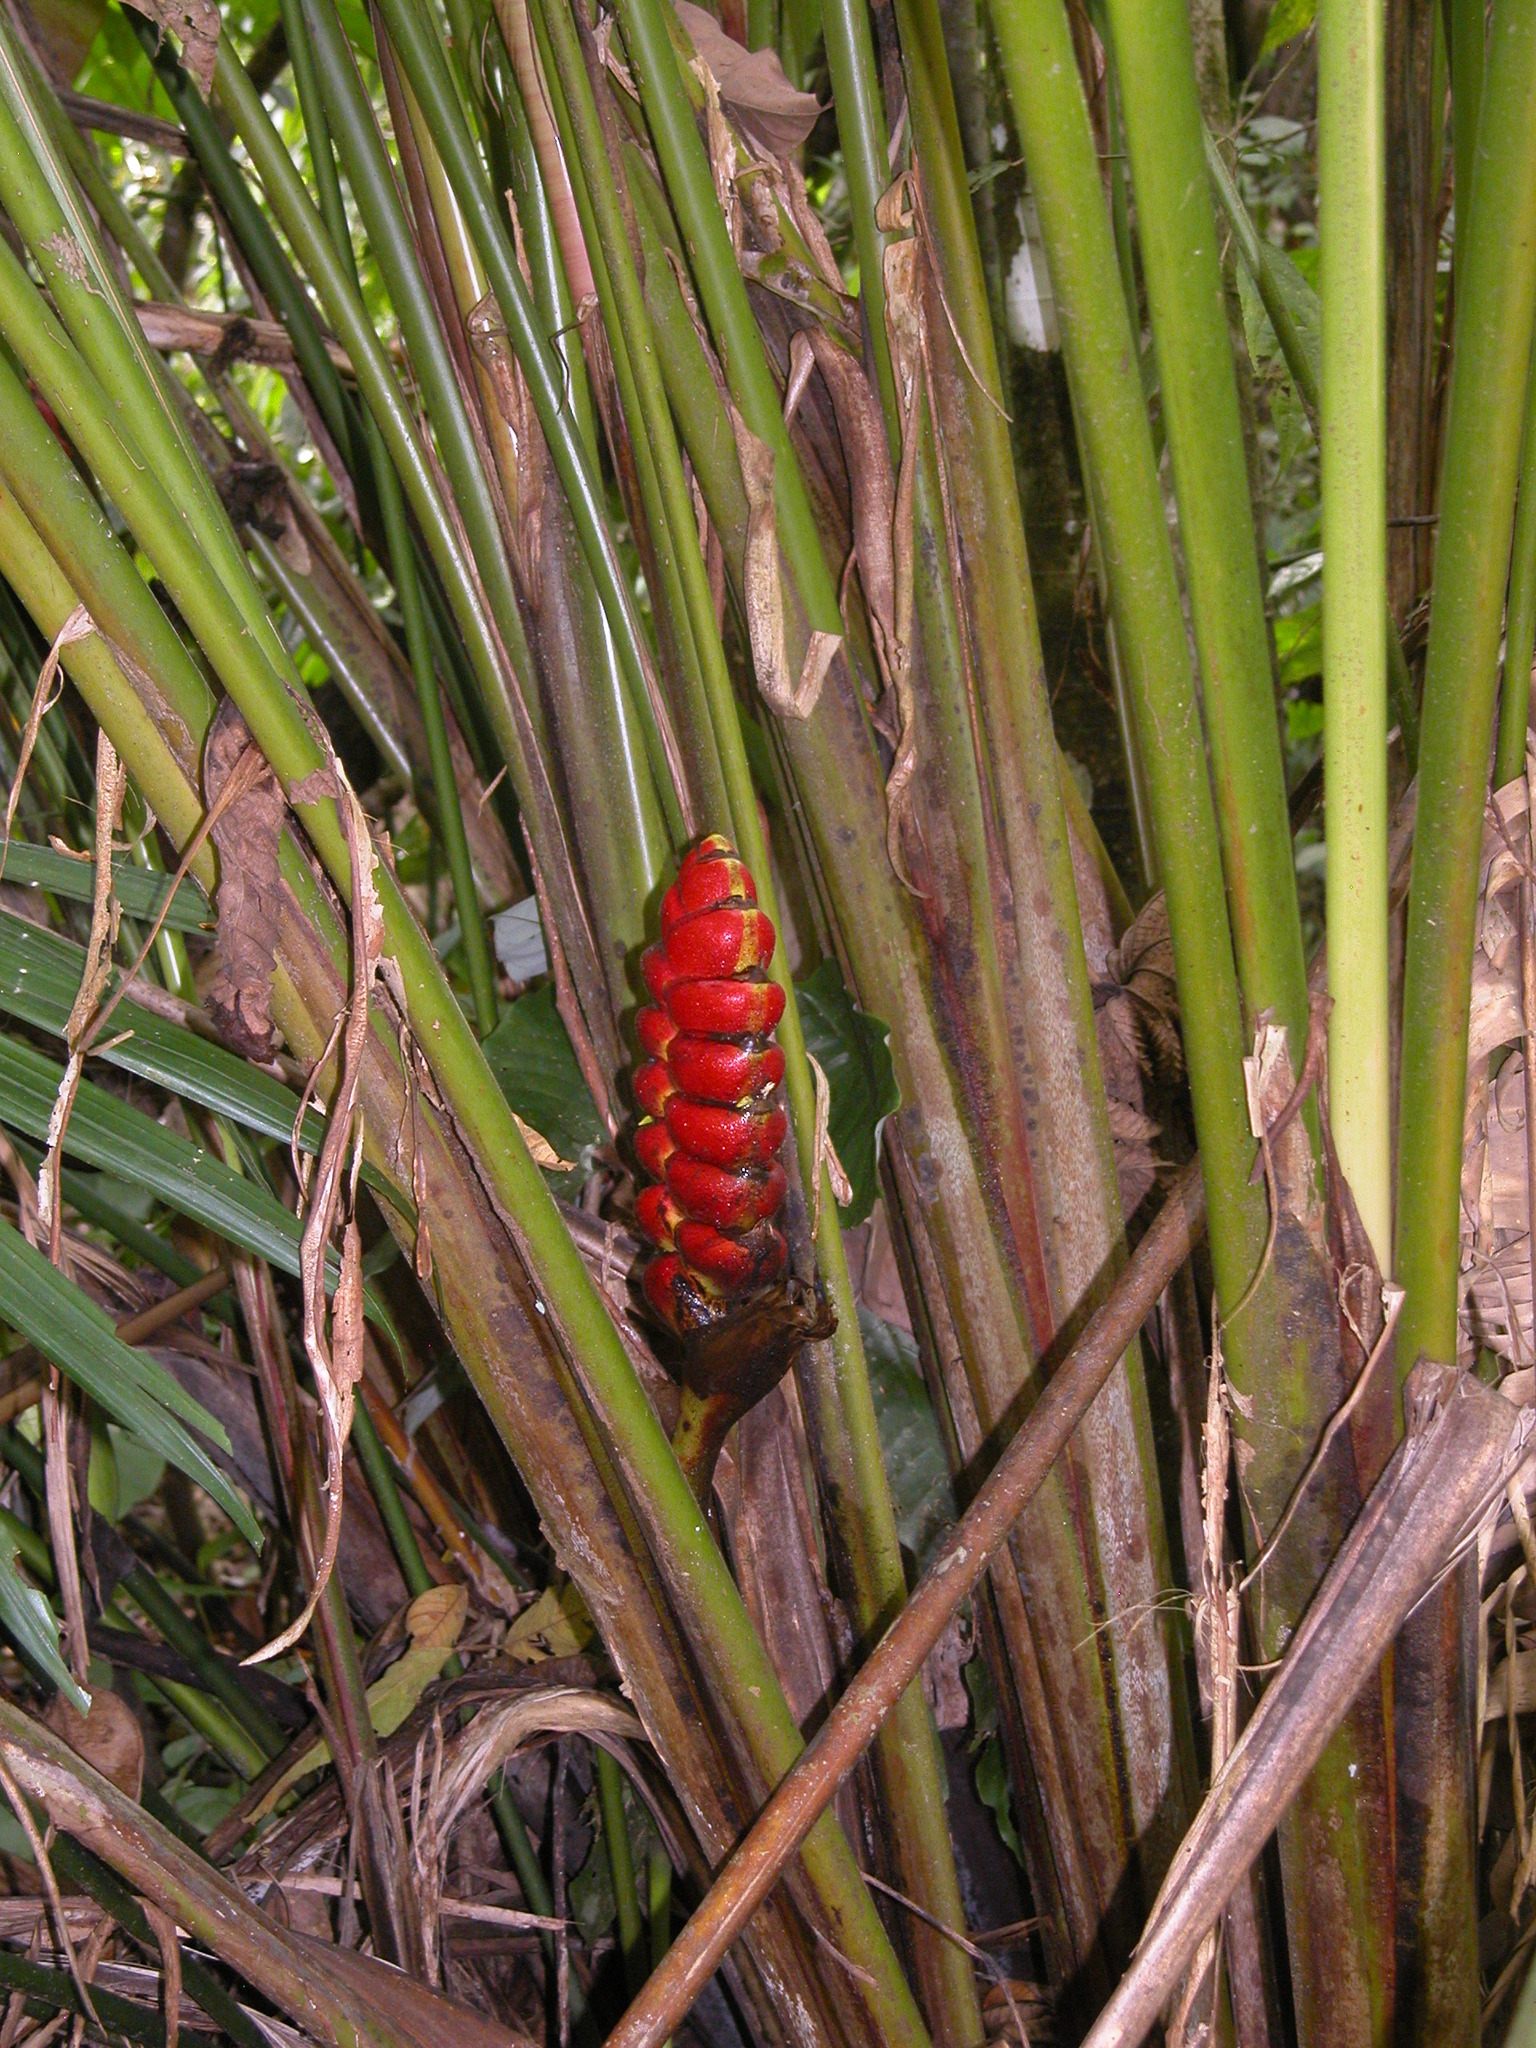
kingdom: Plantae
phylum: Tracheophyta
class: Liliopsida
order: Zingiberales
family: Heliconiaceae
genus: Heliconia
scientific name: Heliconia imbricata
